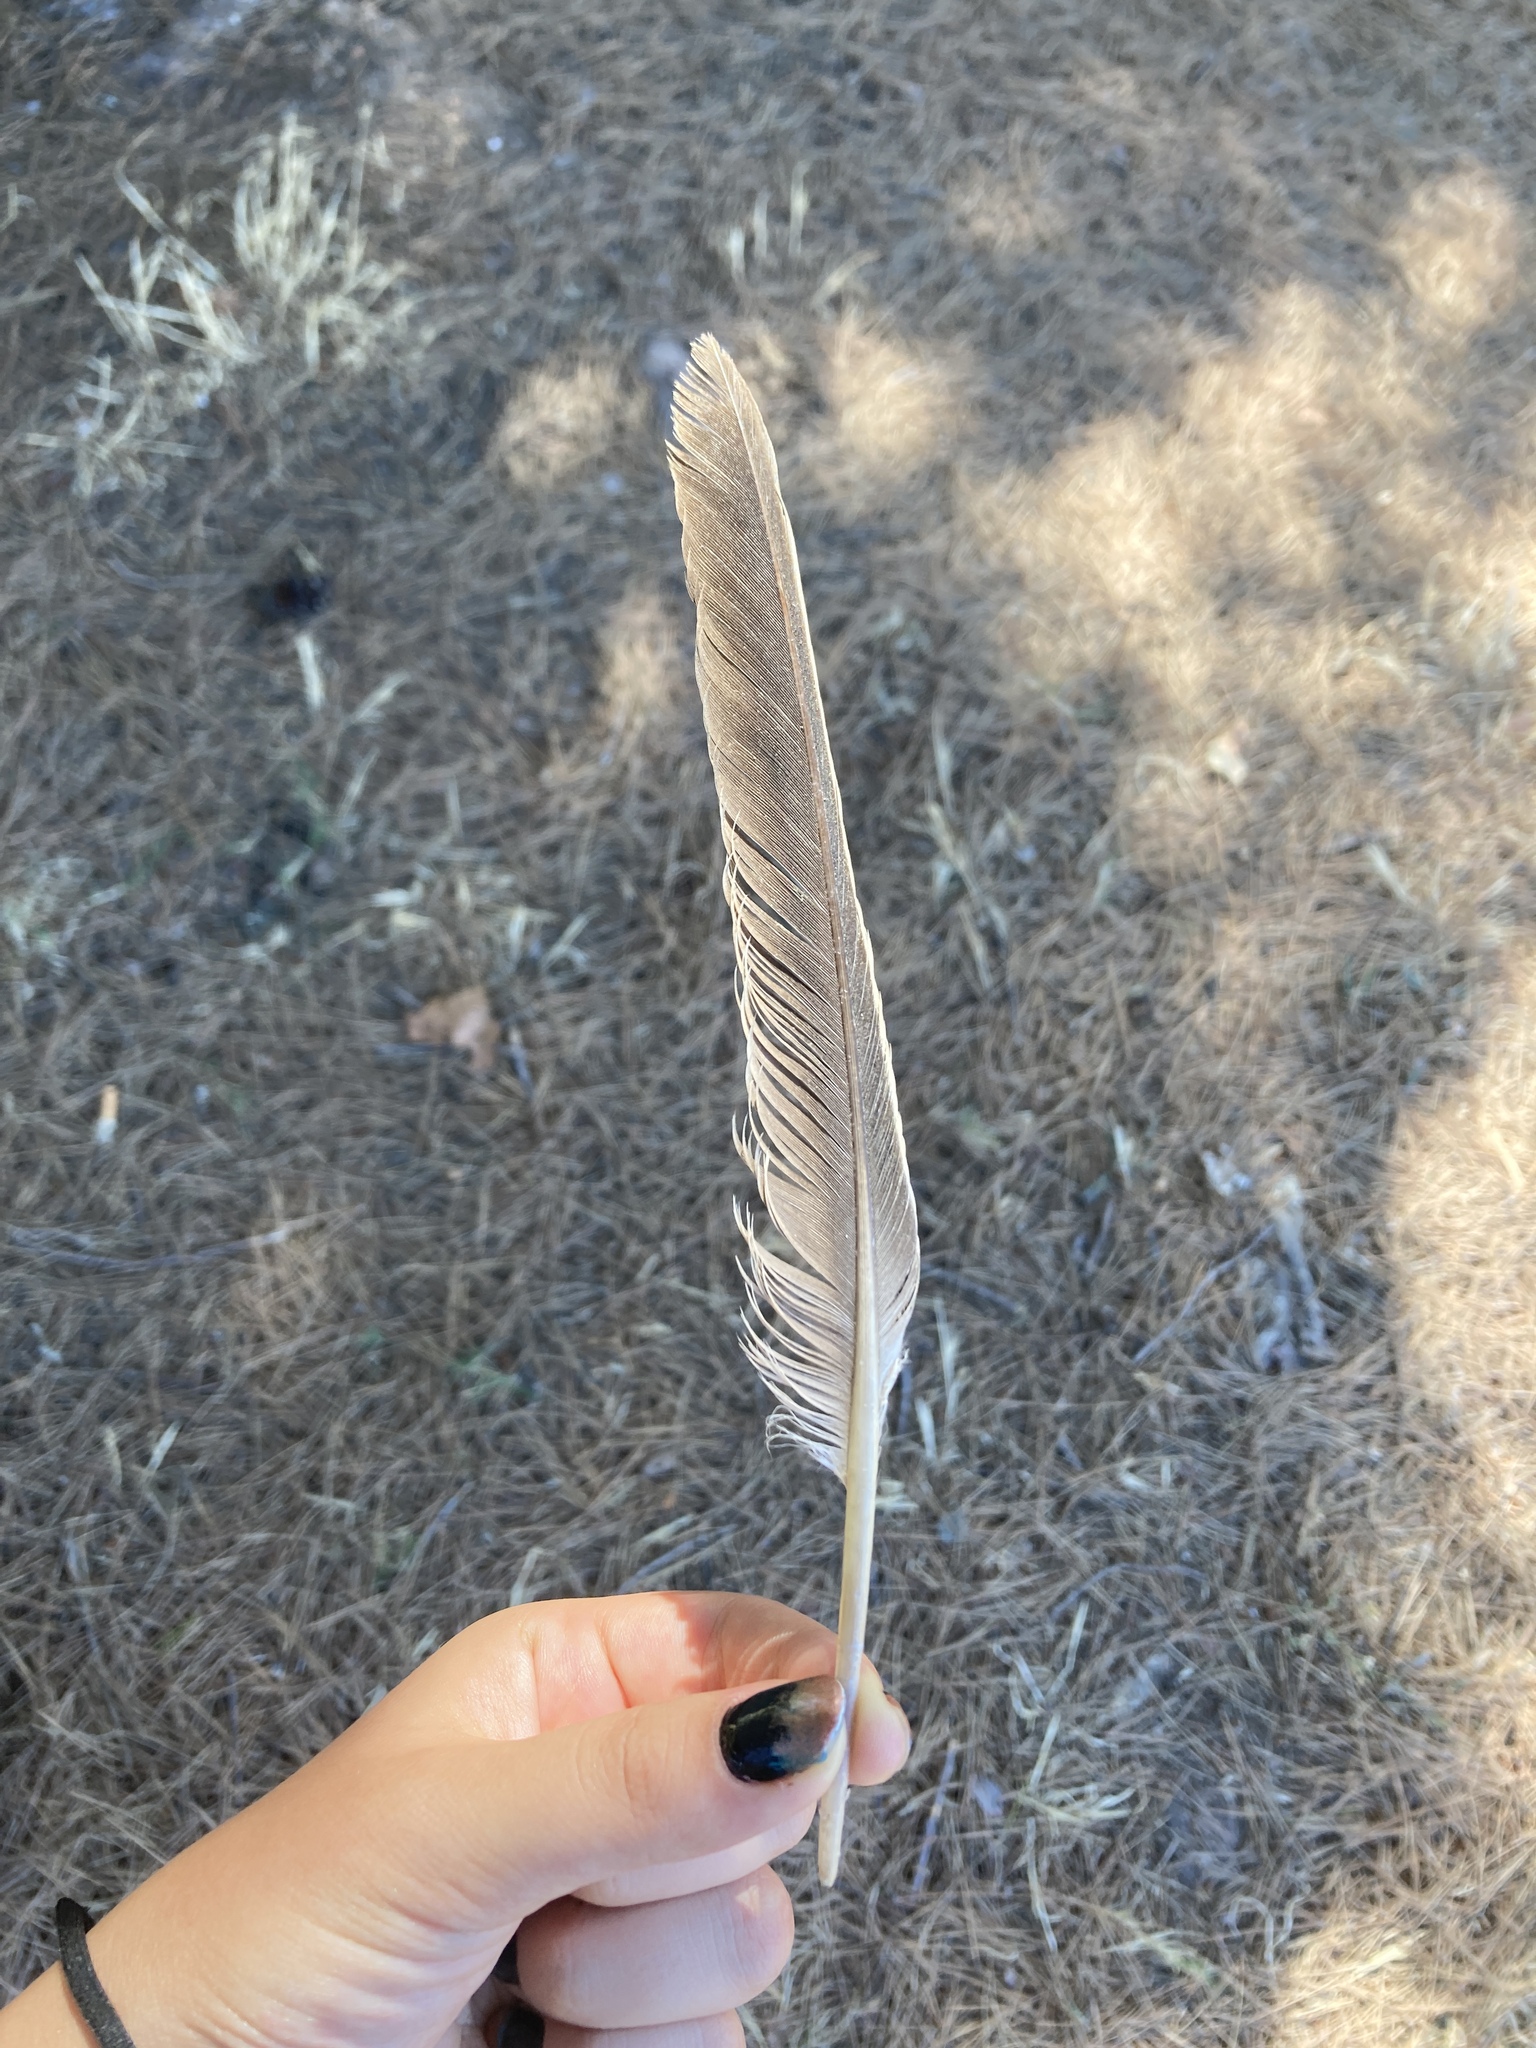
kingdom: Animalia
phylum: Chordata
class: Aves
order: Columbiformes
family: Columbidae
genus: Columba
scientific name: Columba palumbus
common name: Common wood pigeon
